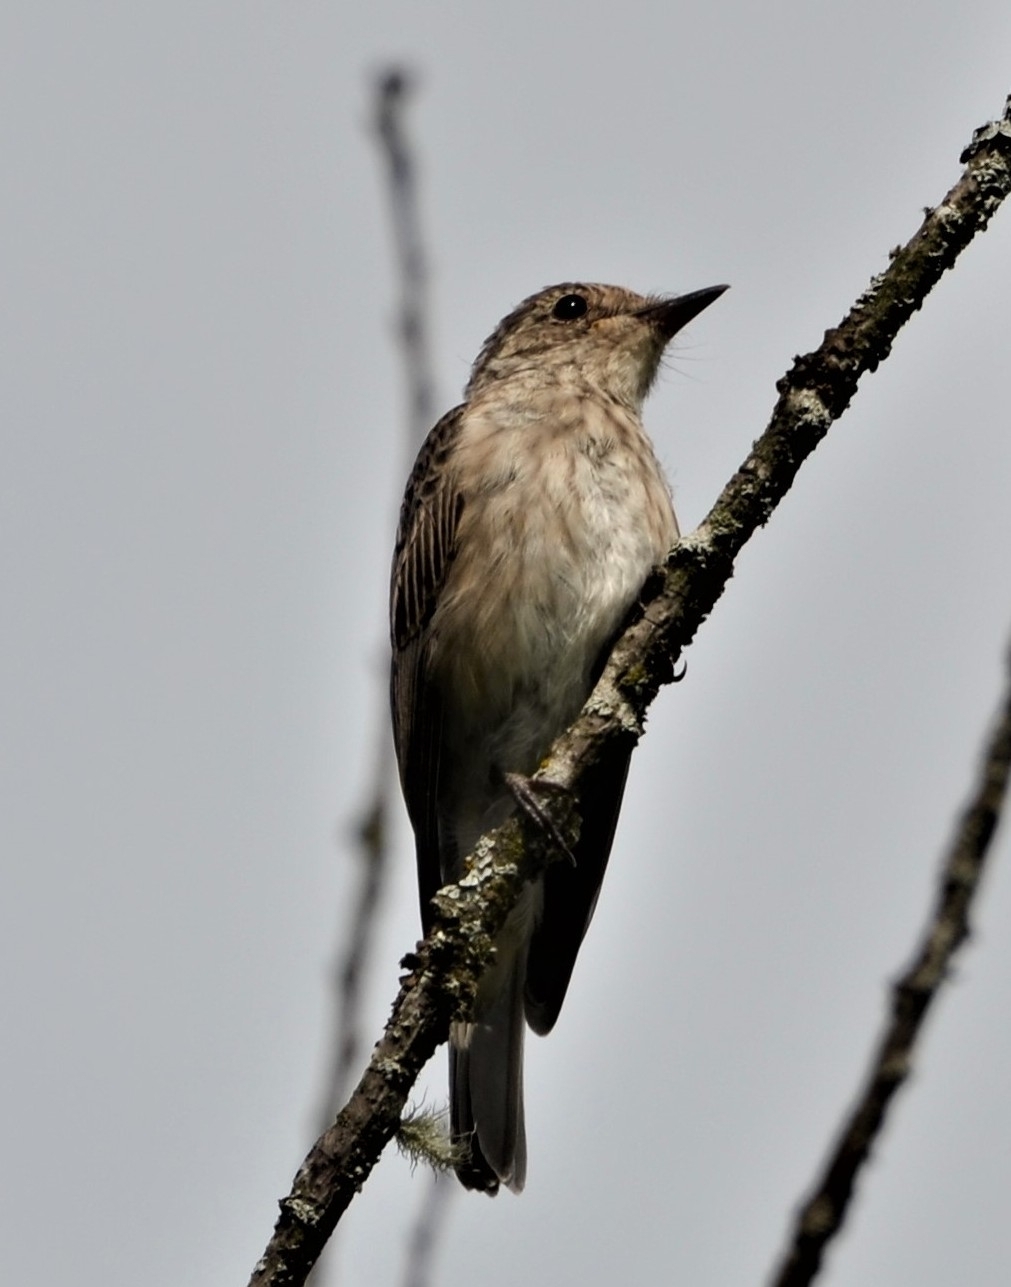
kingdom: Animalia
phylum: Chordata
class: Aves
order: Passeriformes
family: Muscicapidae
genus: Muscicapa
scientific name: Muscicapa striata
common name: Spotted flycatcher
